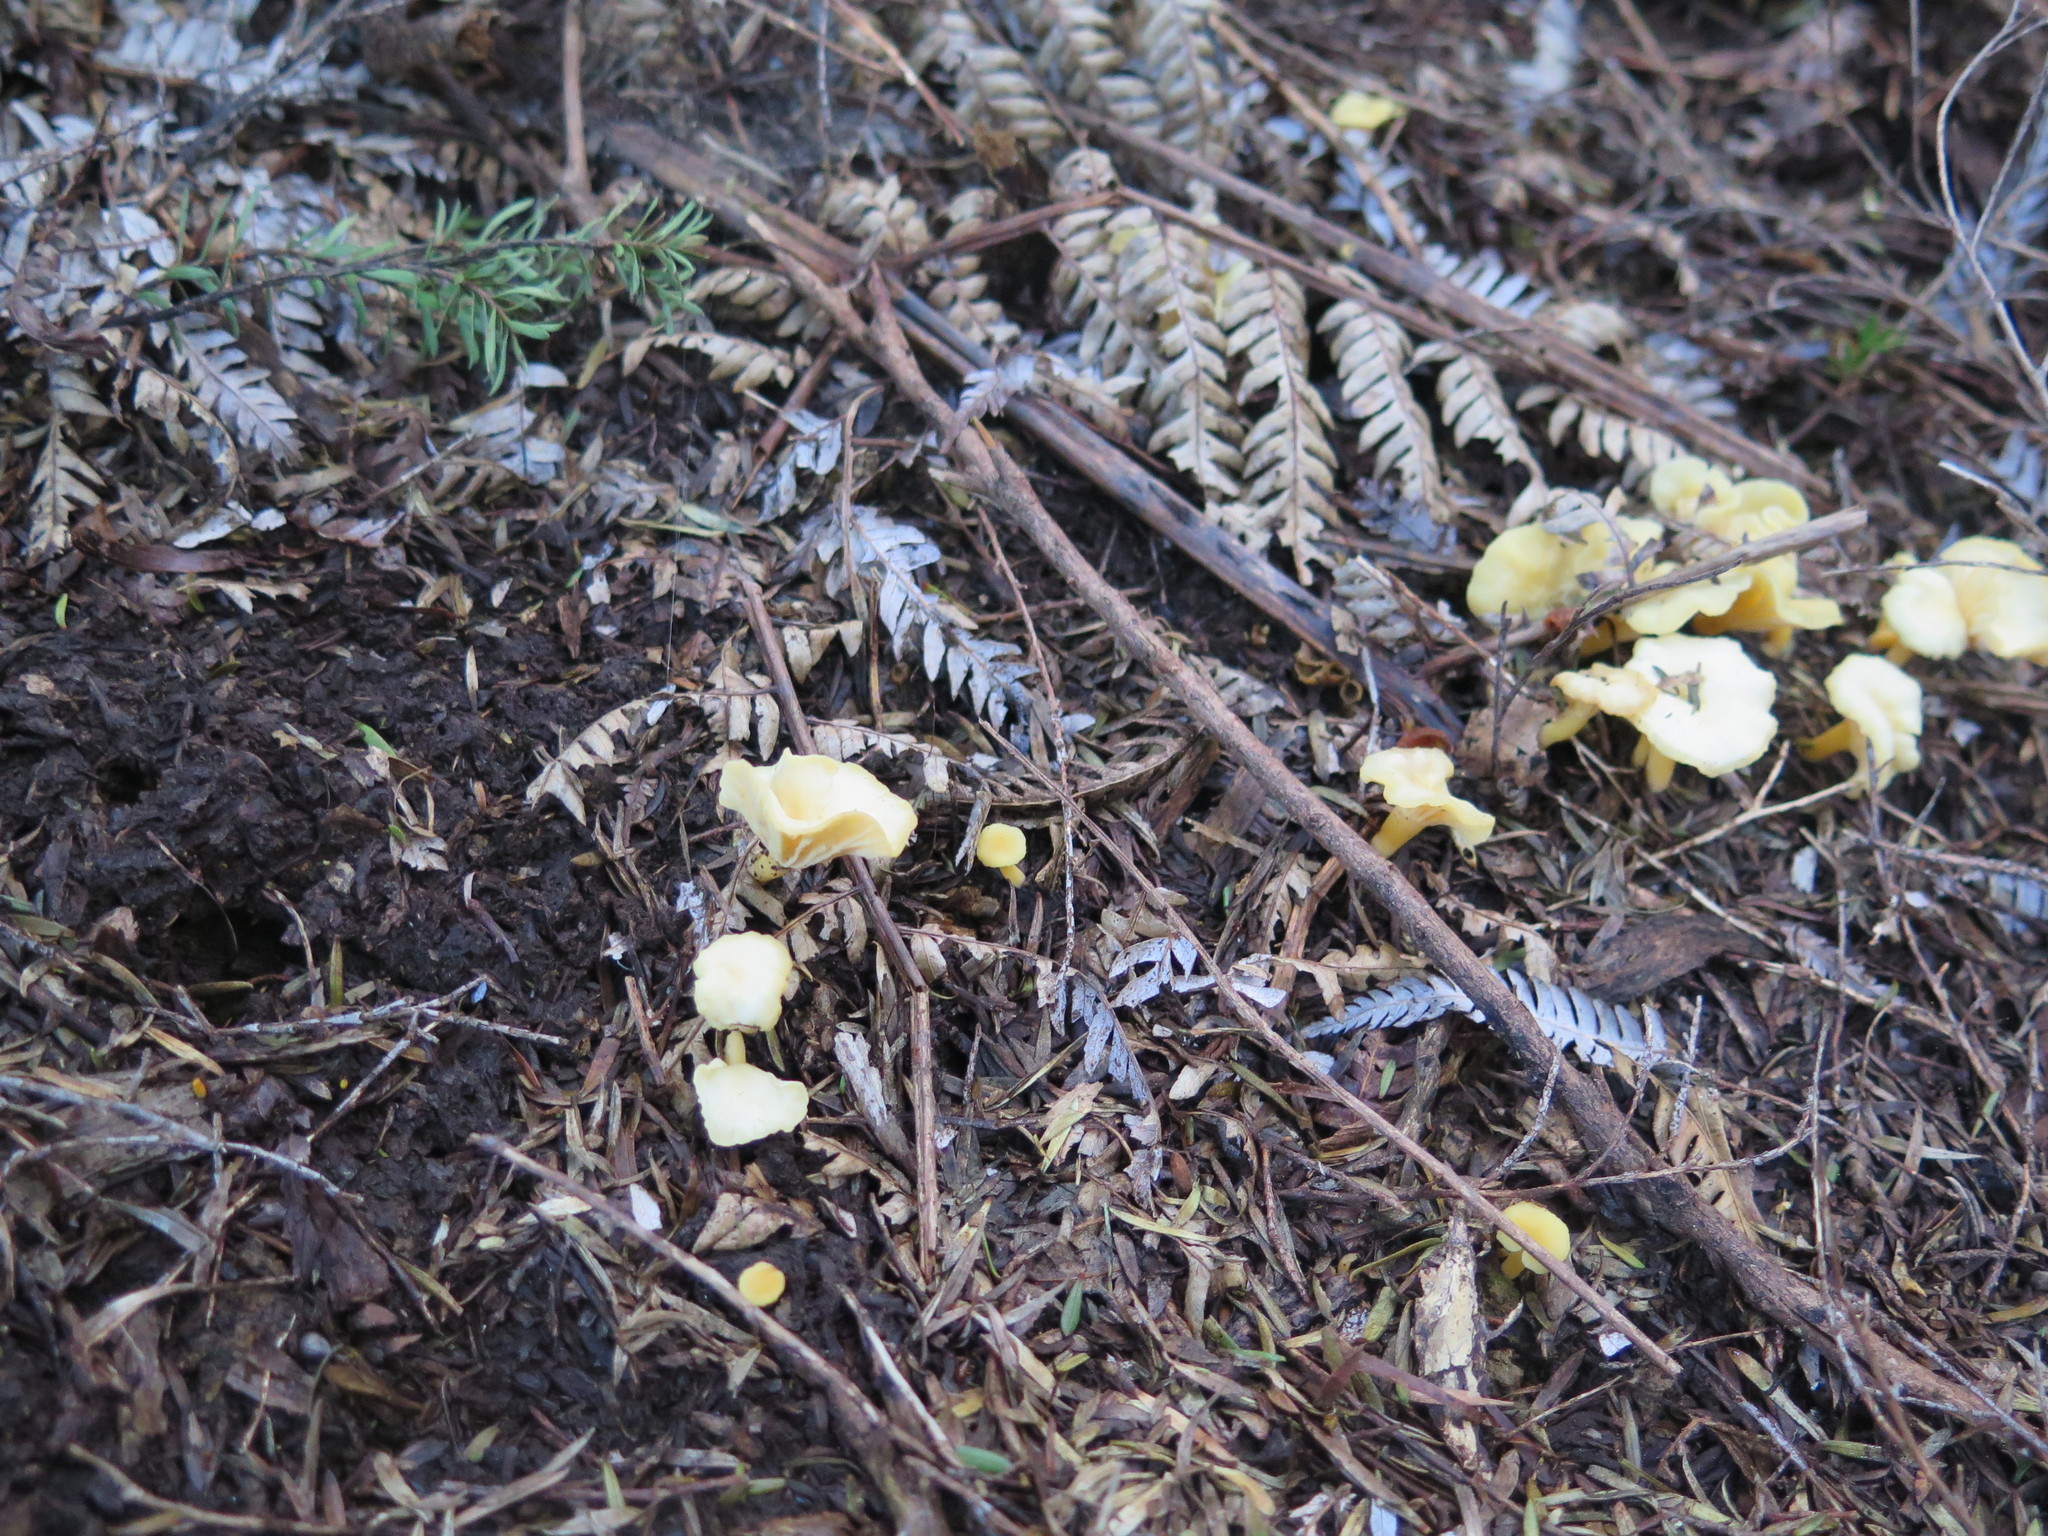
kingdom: Fungi
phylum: Basidiomycota
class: Agaricomycetes
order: Cantharellales
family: Hydnaceae
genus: Cantharellus
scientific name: Cantharellus wellingtonensis
